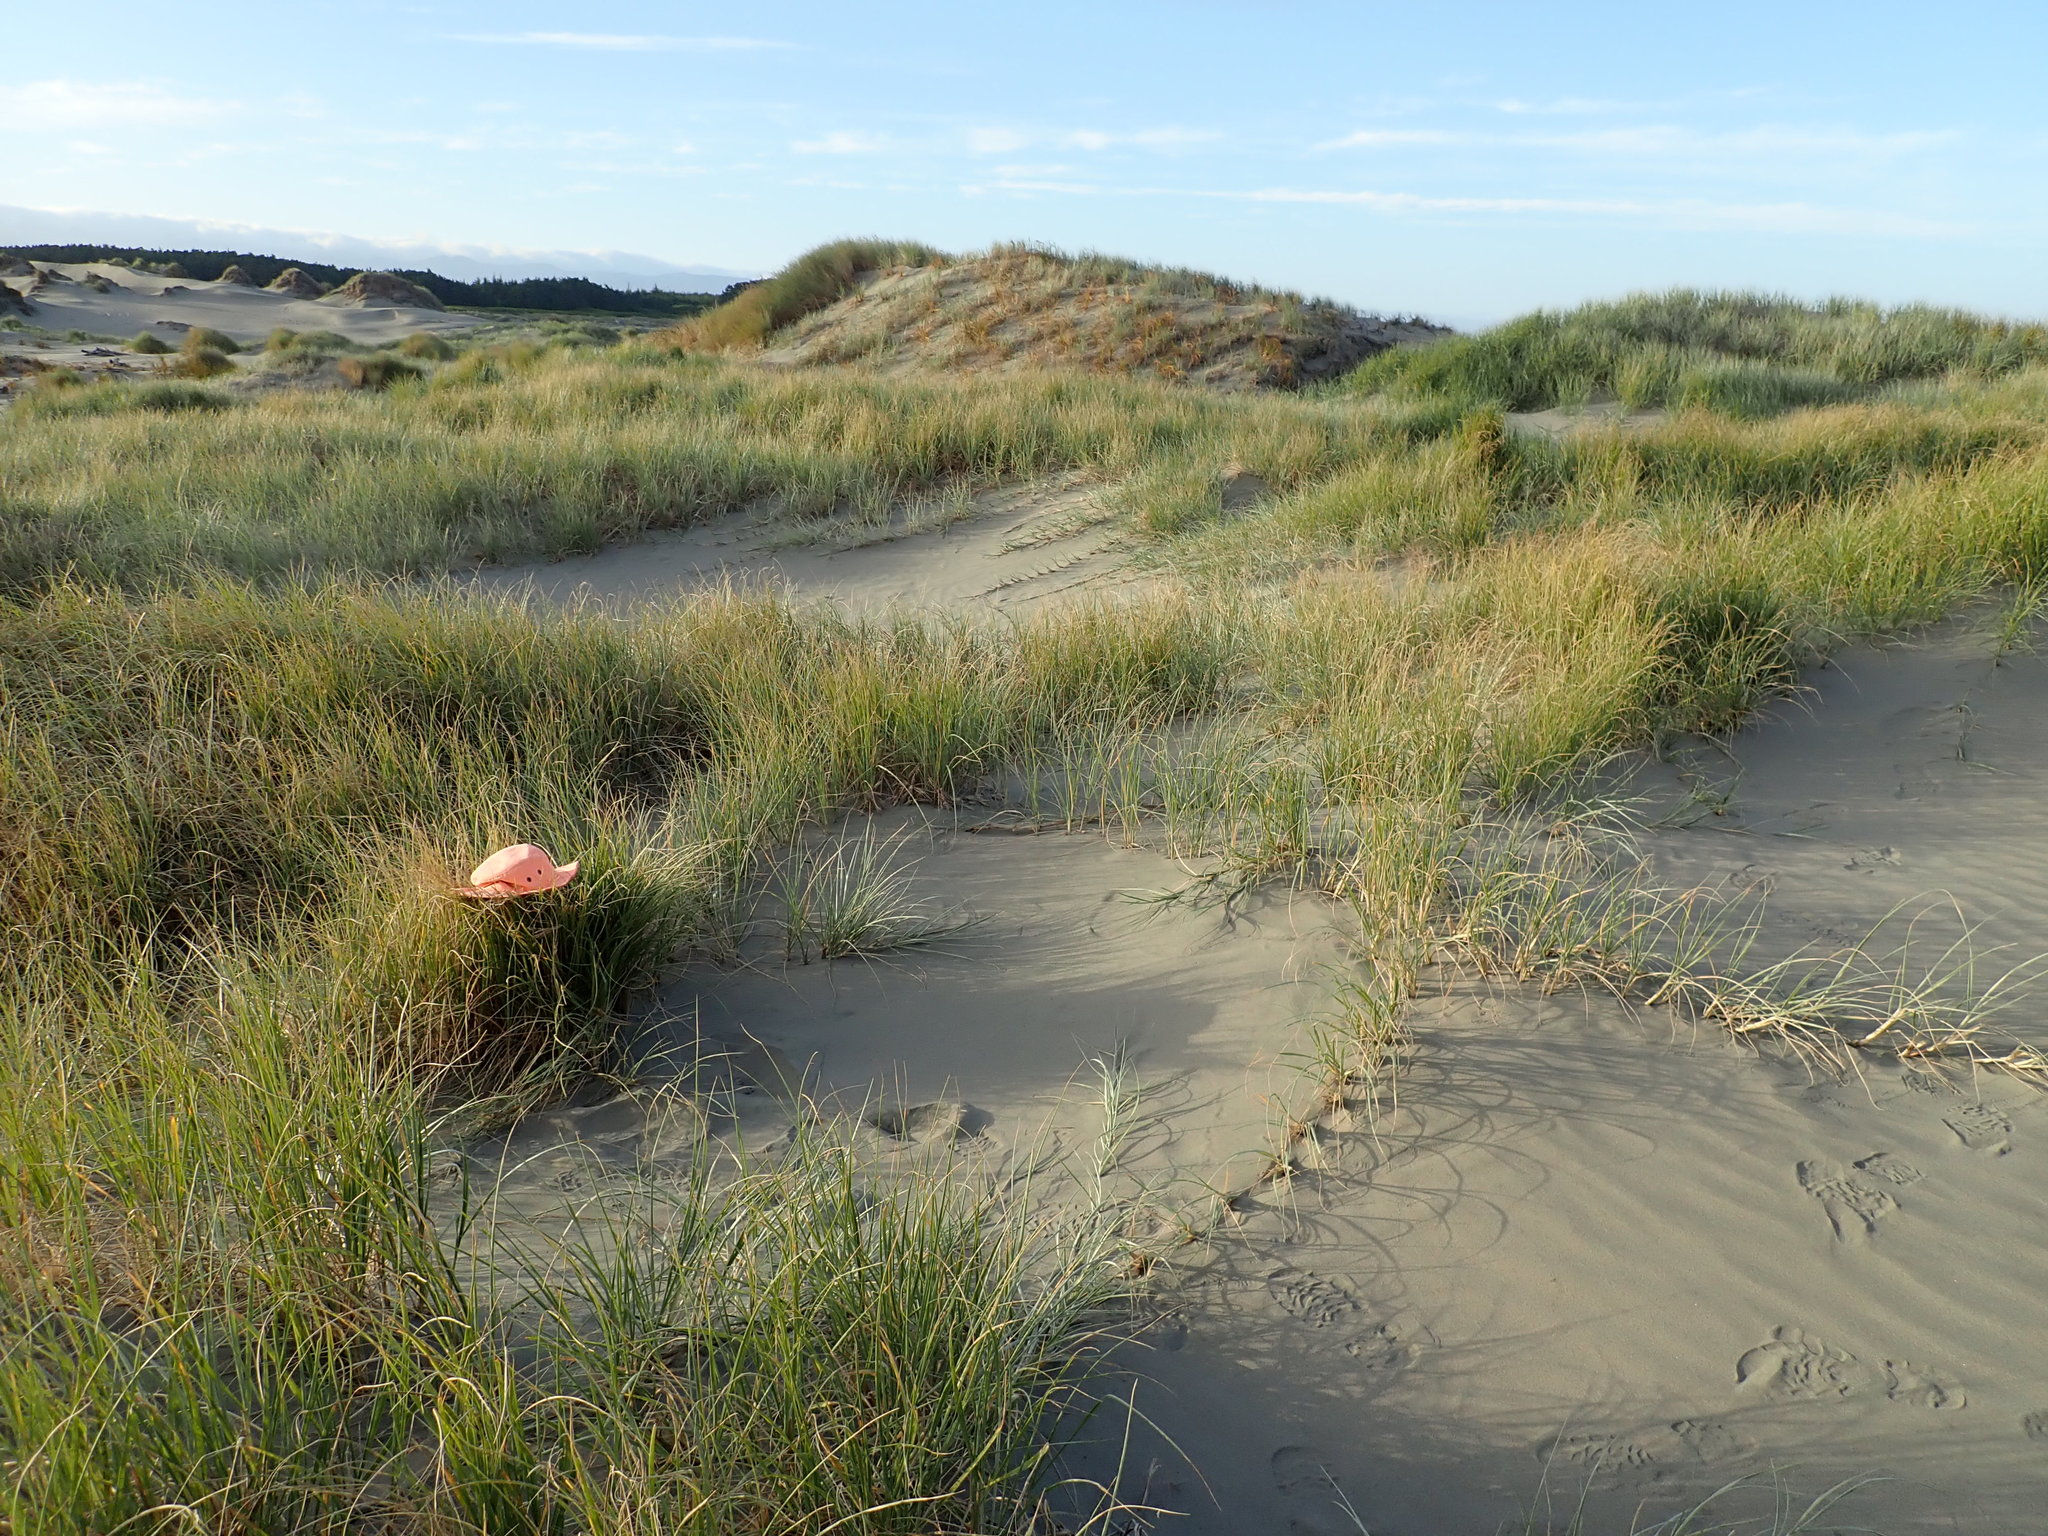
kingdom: Fungi
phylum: Basidiomycota
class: Agaricomycetes
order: Agaricales
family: Marasmiaceae
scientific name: Marasmiaceae
